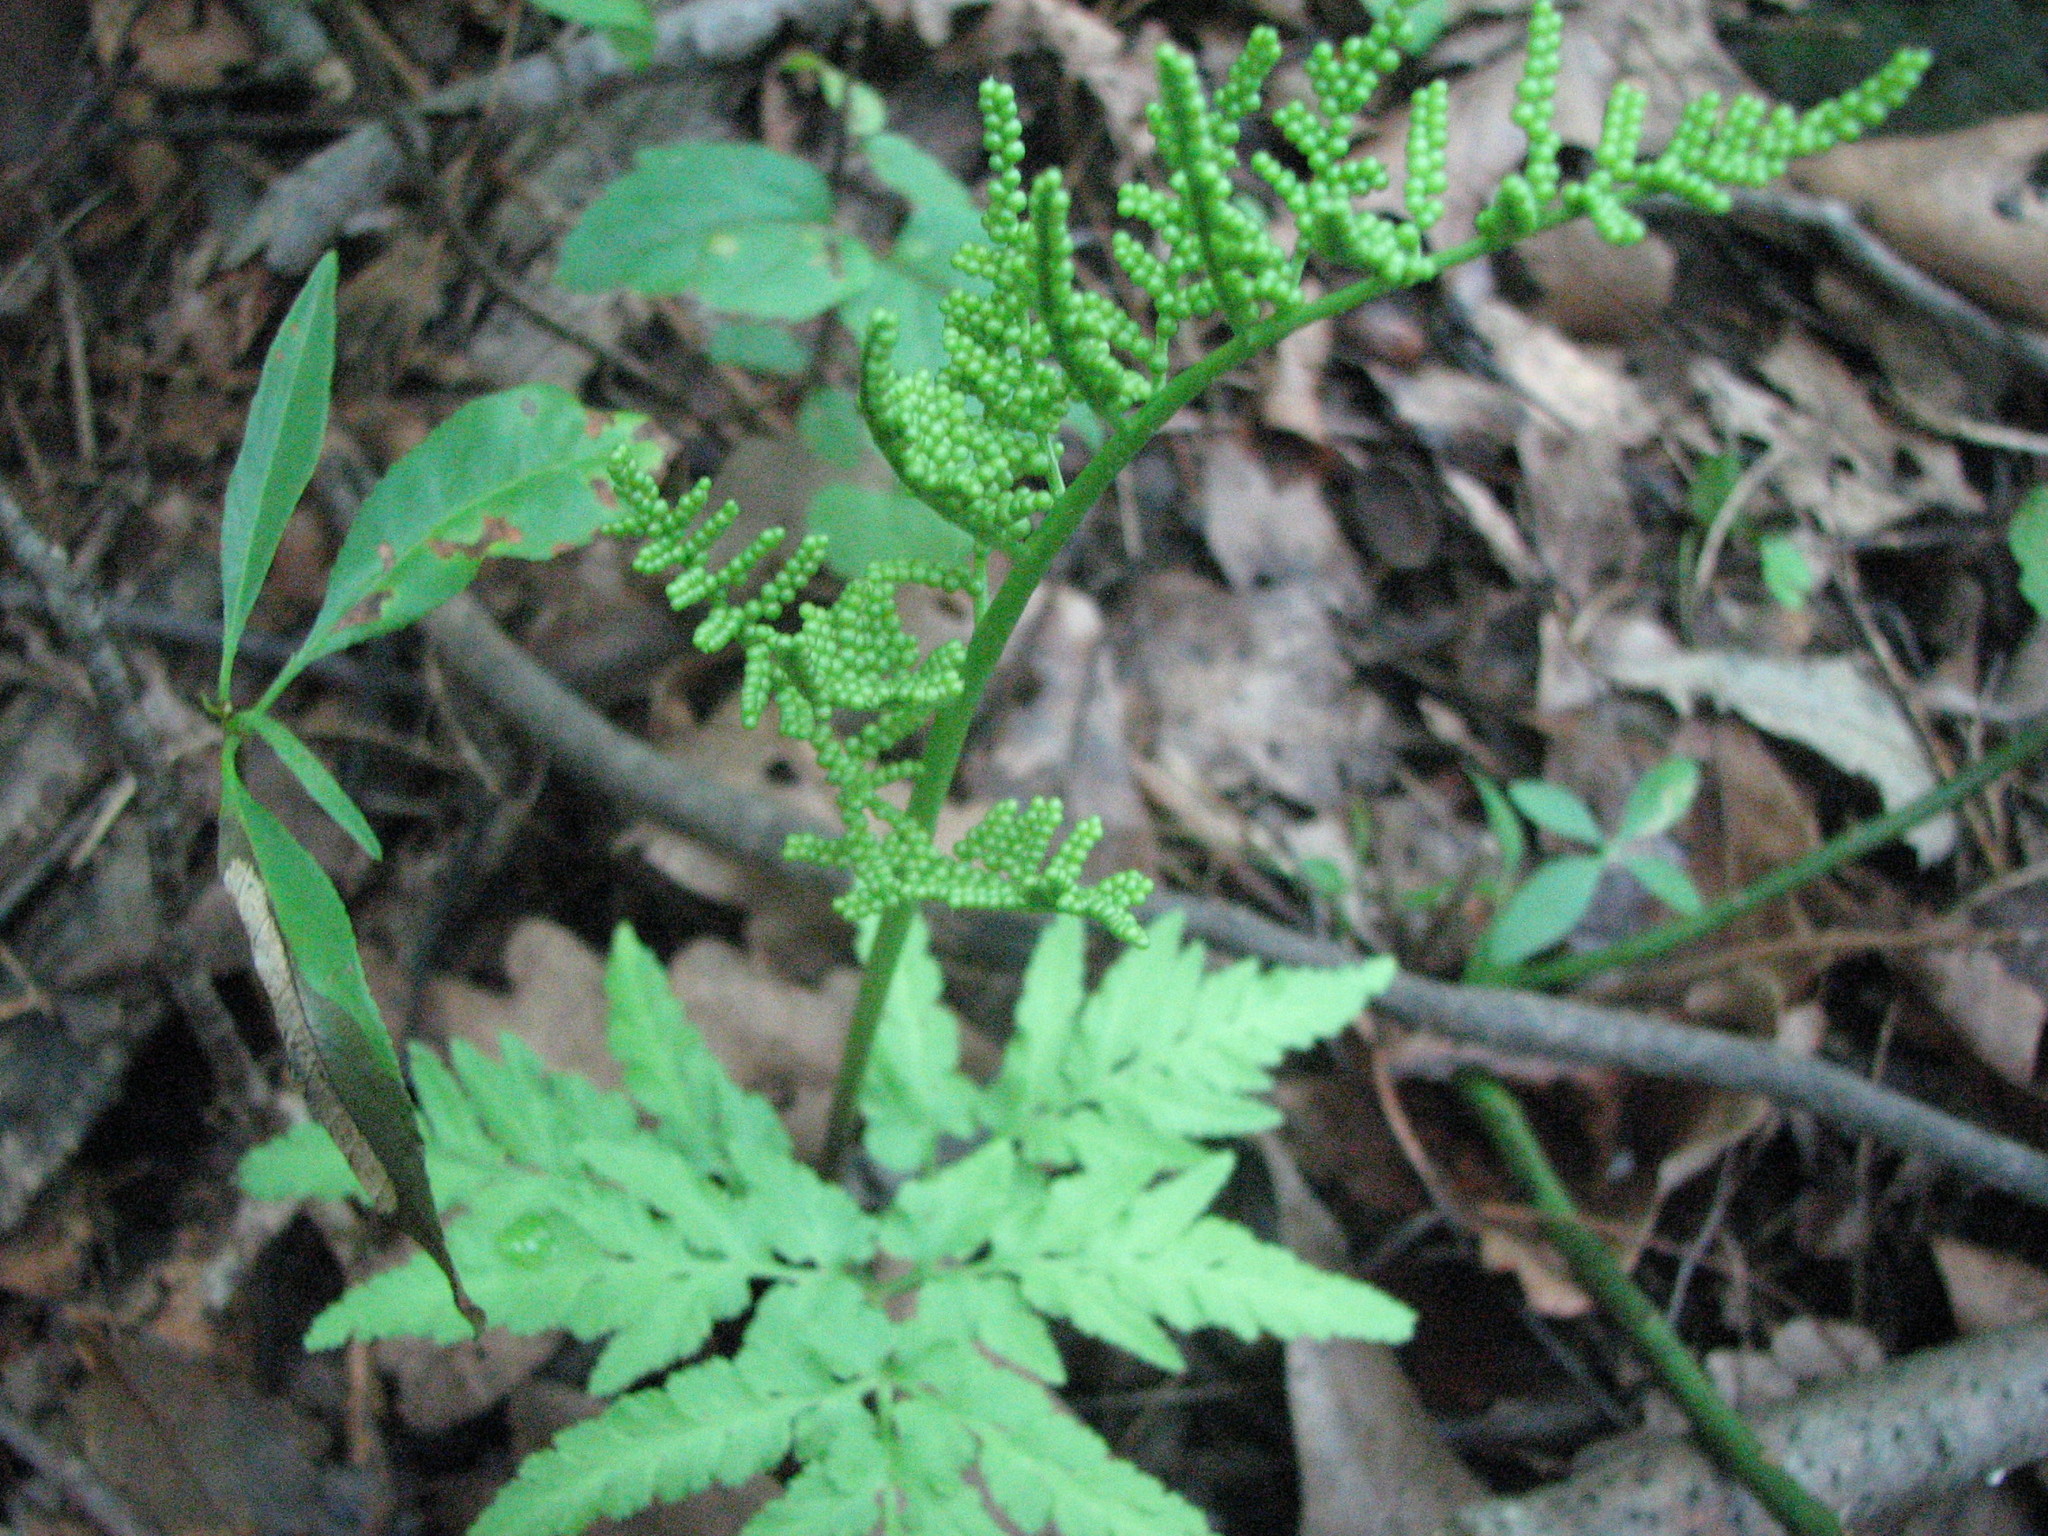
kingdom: Plantae
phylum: Tracheophyta
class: Polypodiopsida
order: Ophioglossales
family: Ophioglossaceae
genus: Sceptridium
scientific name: Sceptridium dissectum
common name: Cut-leaved grapefern
